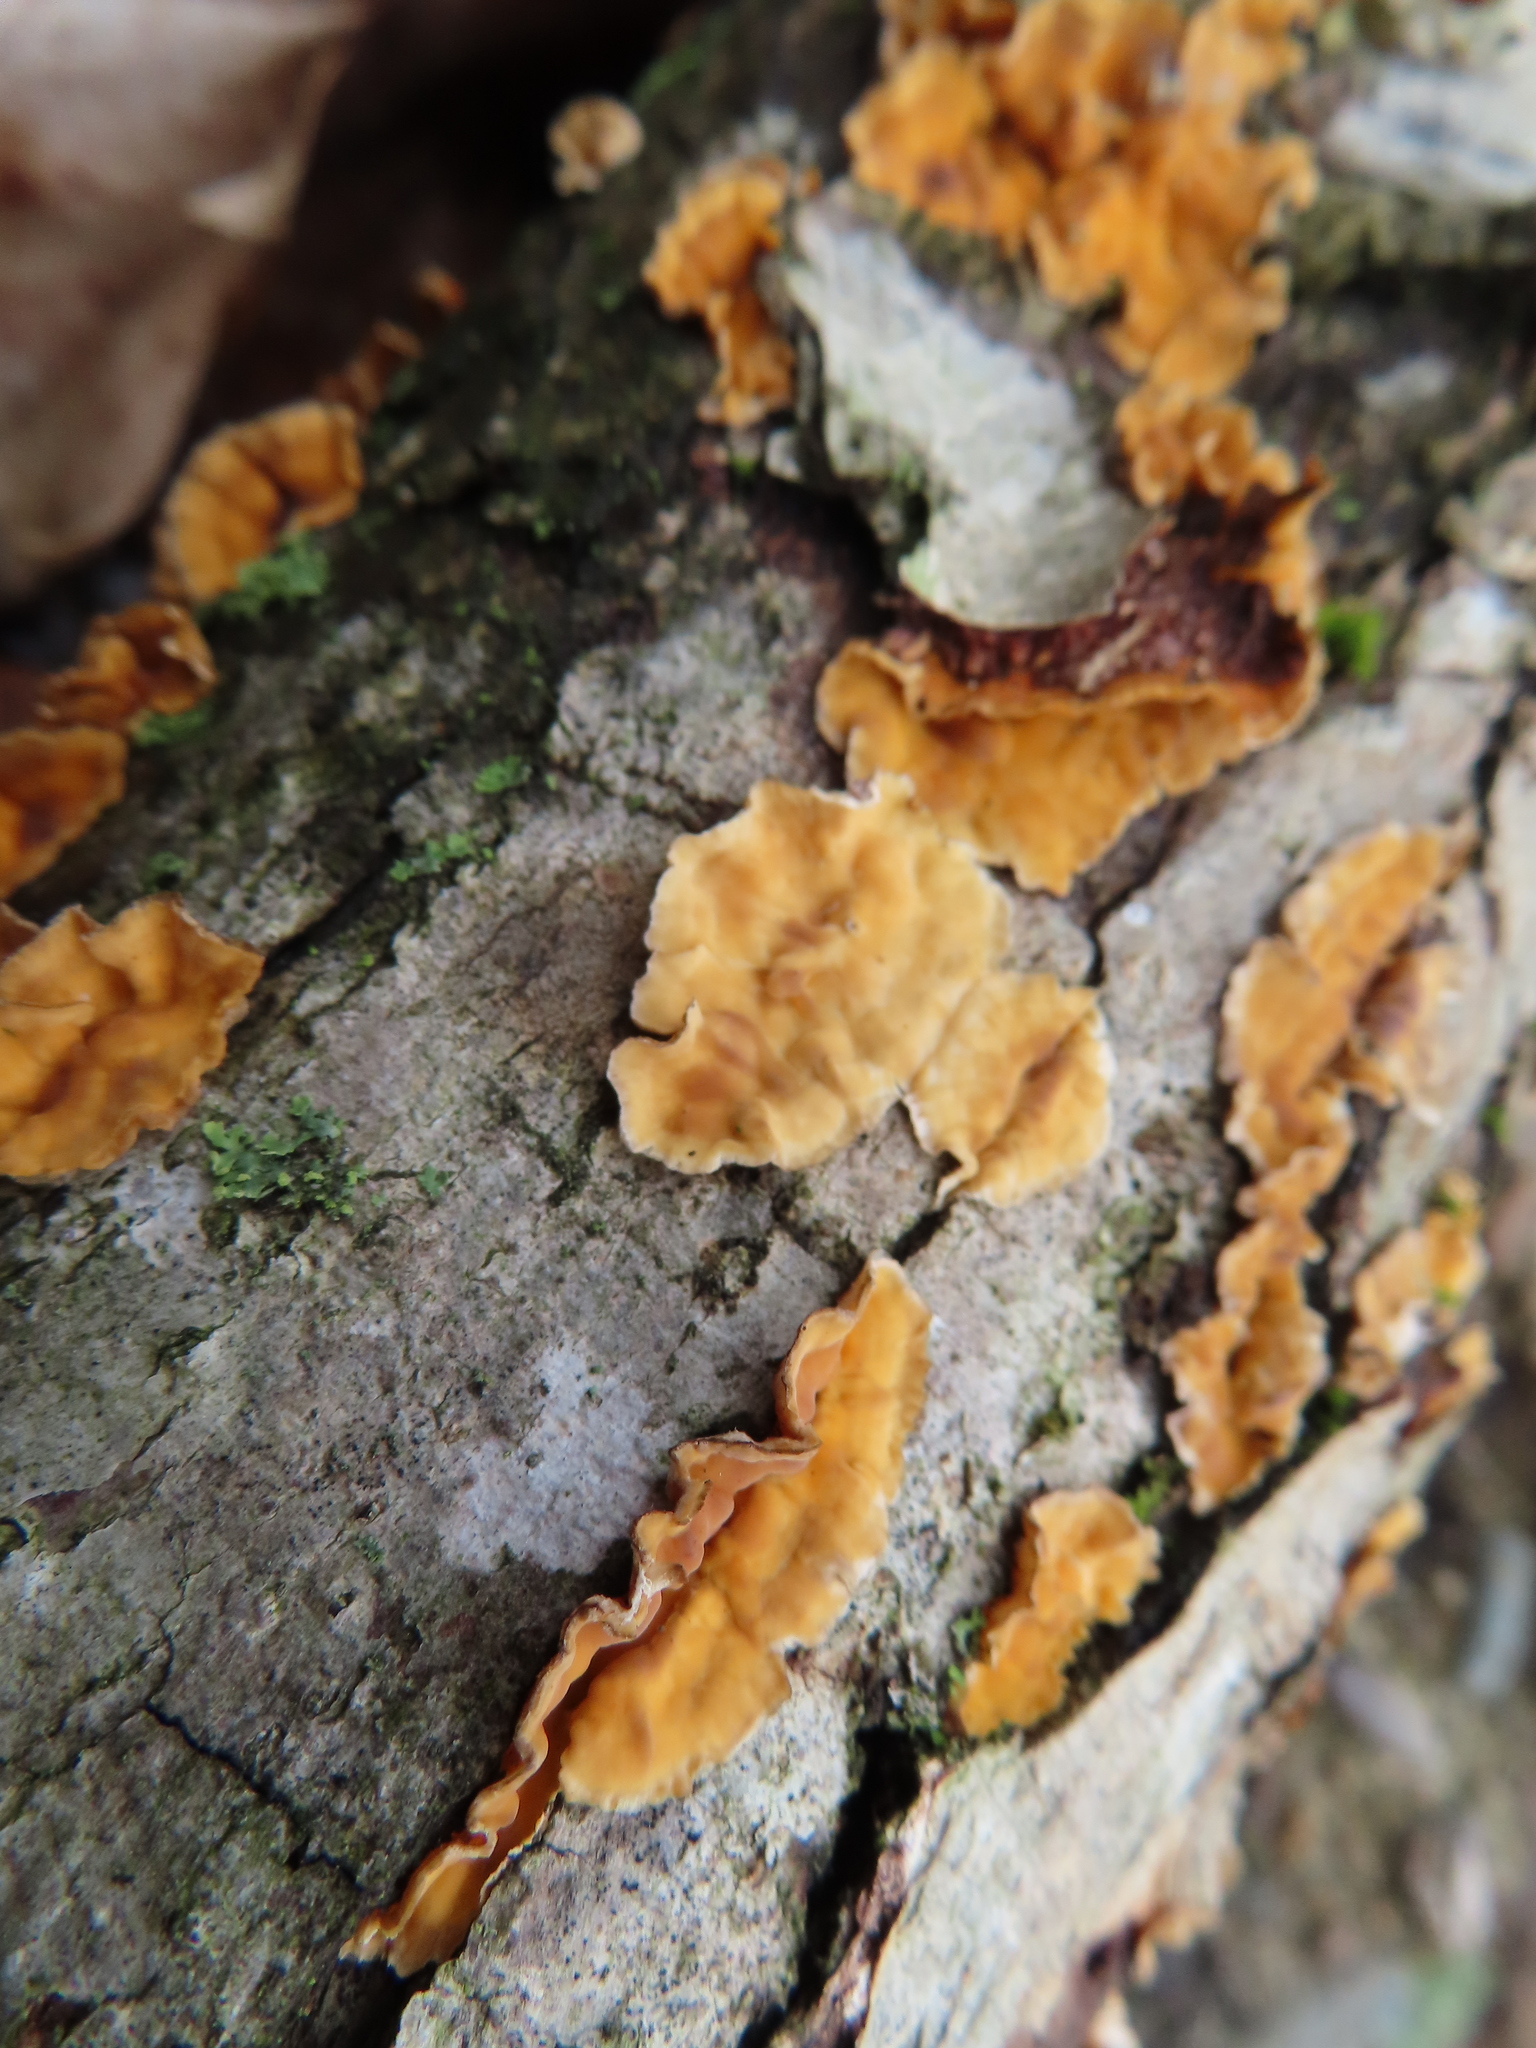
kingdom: Fungi
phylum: Basidiomycota
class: Agaricomycetes
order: Russulales
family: Stereaceae
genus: Stereum
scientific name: Stereum complicatum
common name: Crowded parchment
